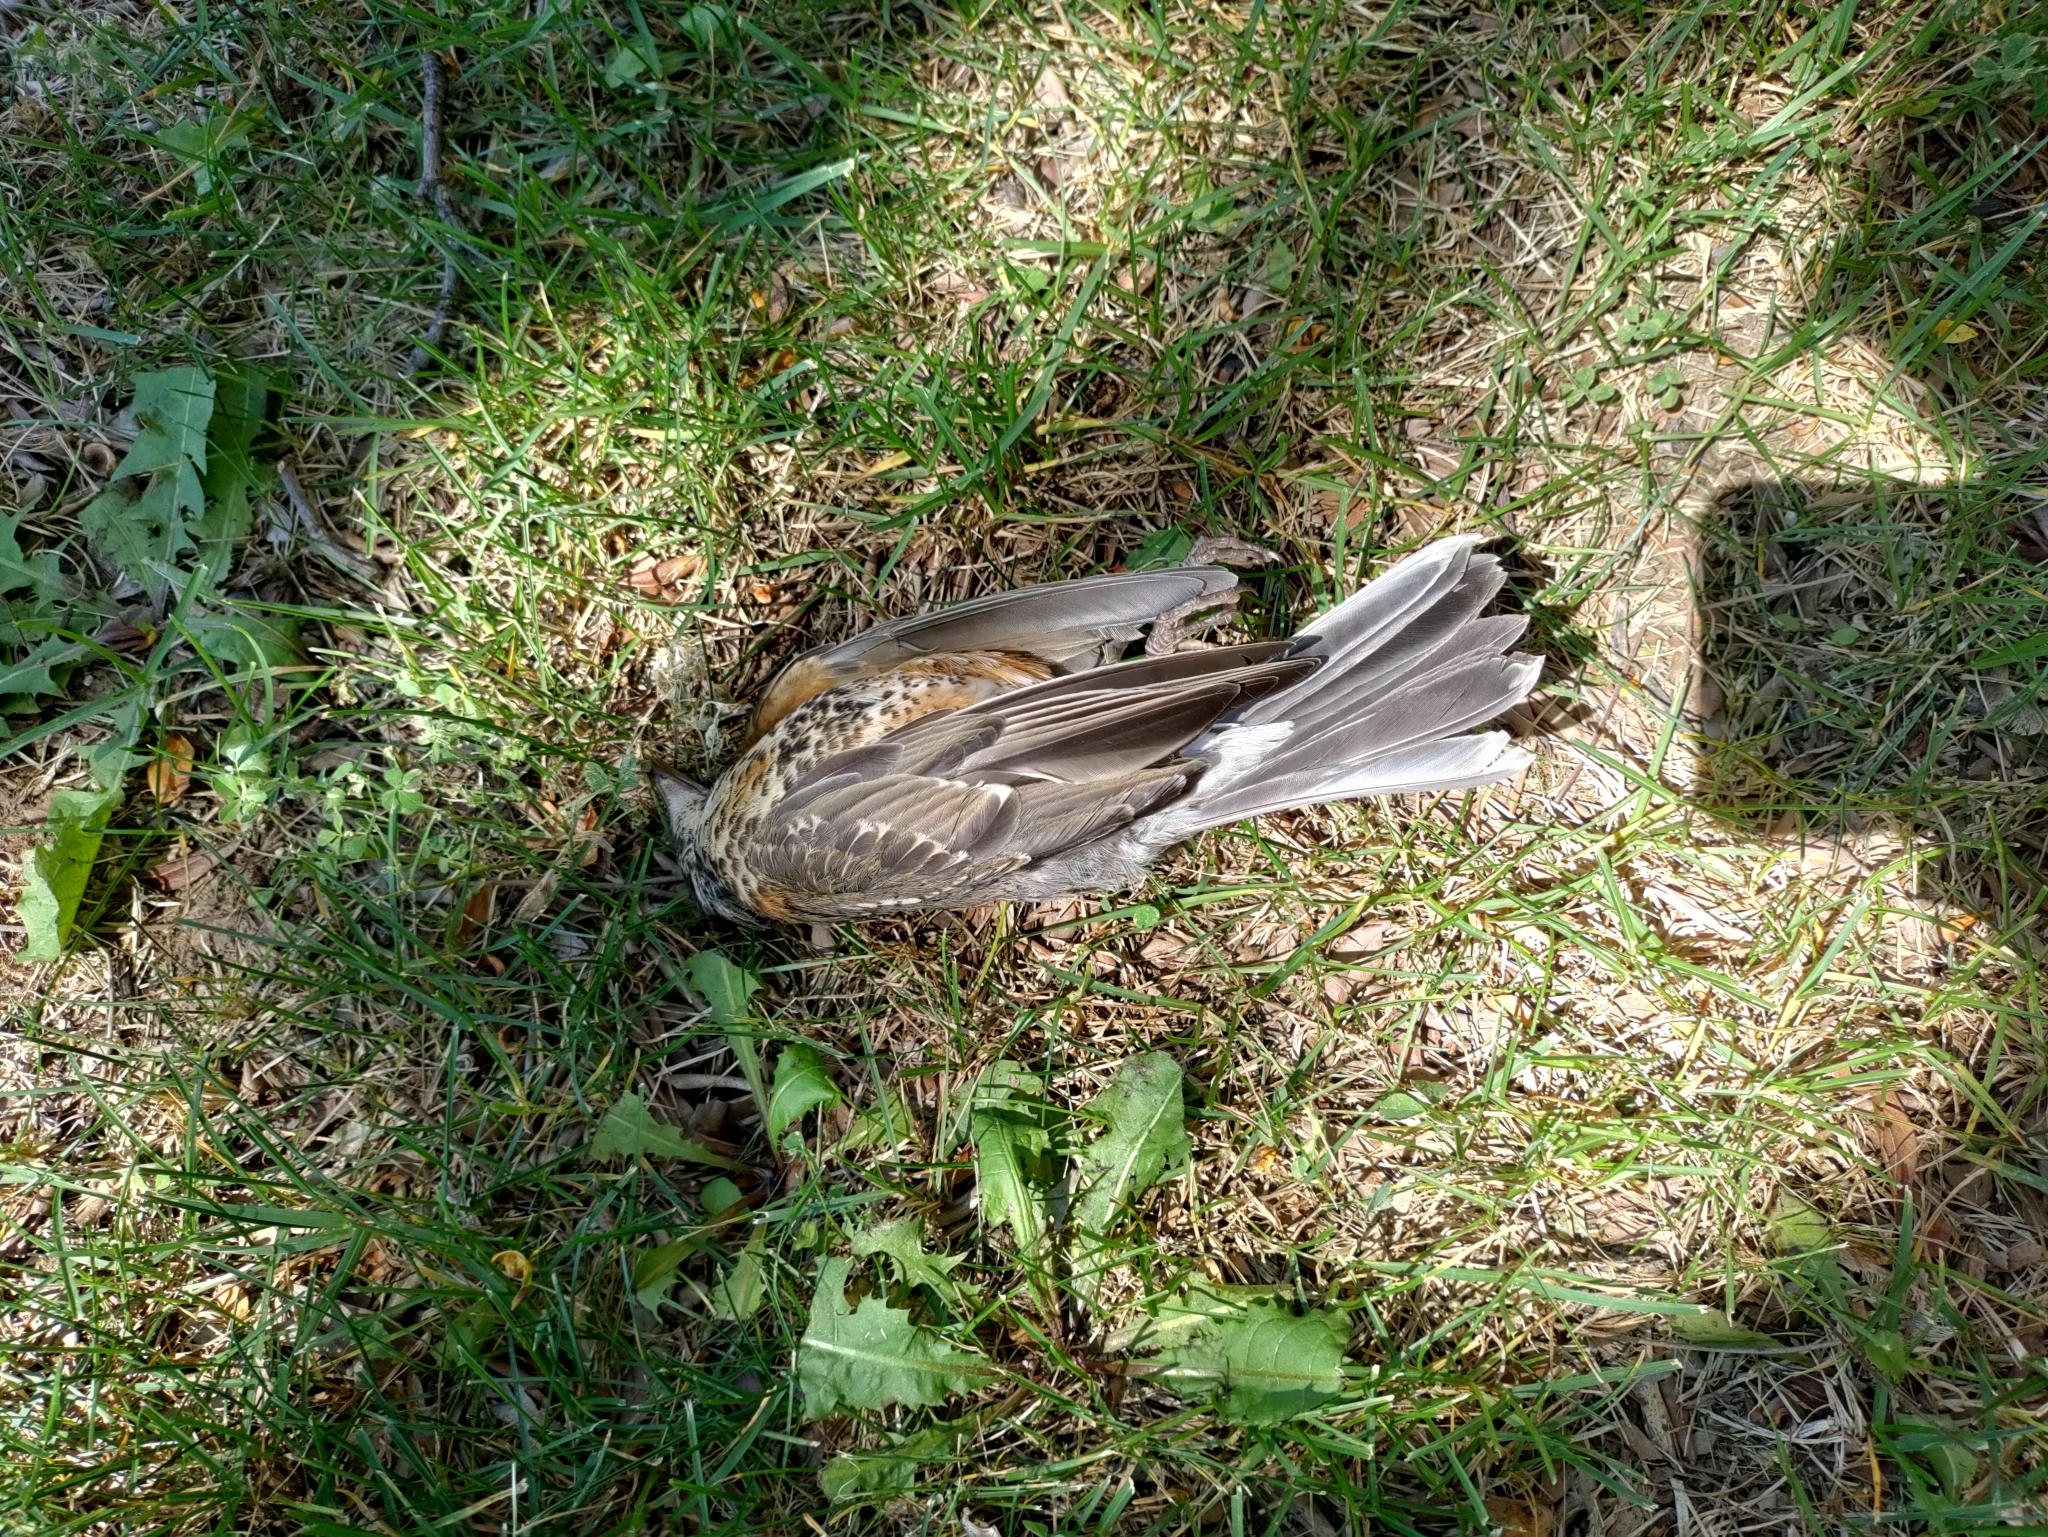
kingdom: Animalia
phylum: Chordata
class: Aves
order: Passeriformes
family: Turdidae
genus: Turdus
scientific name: Turdus migratorius
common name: American robin
